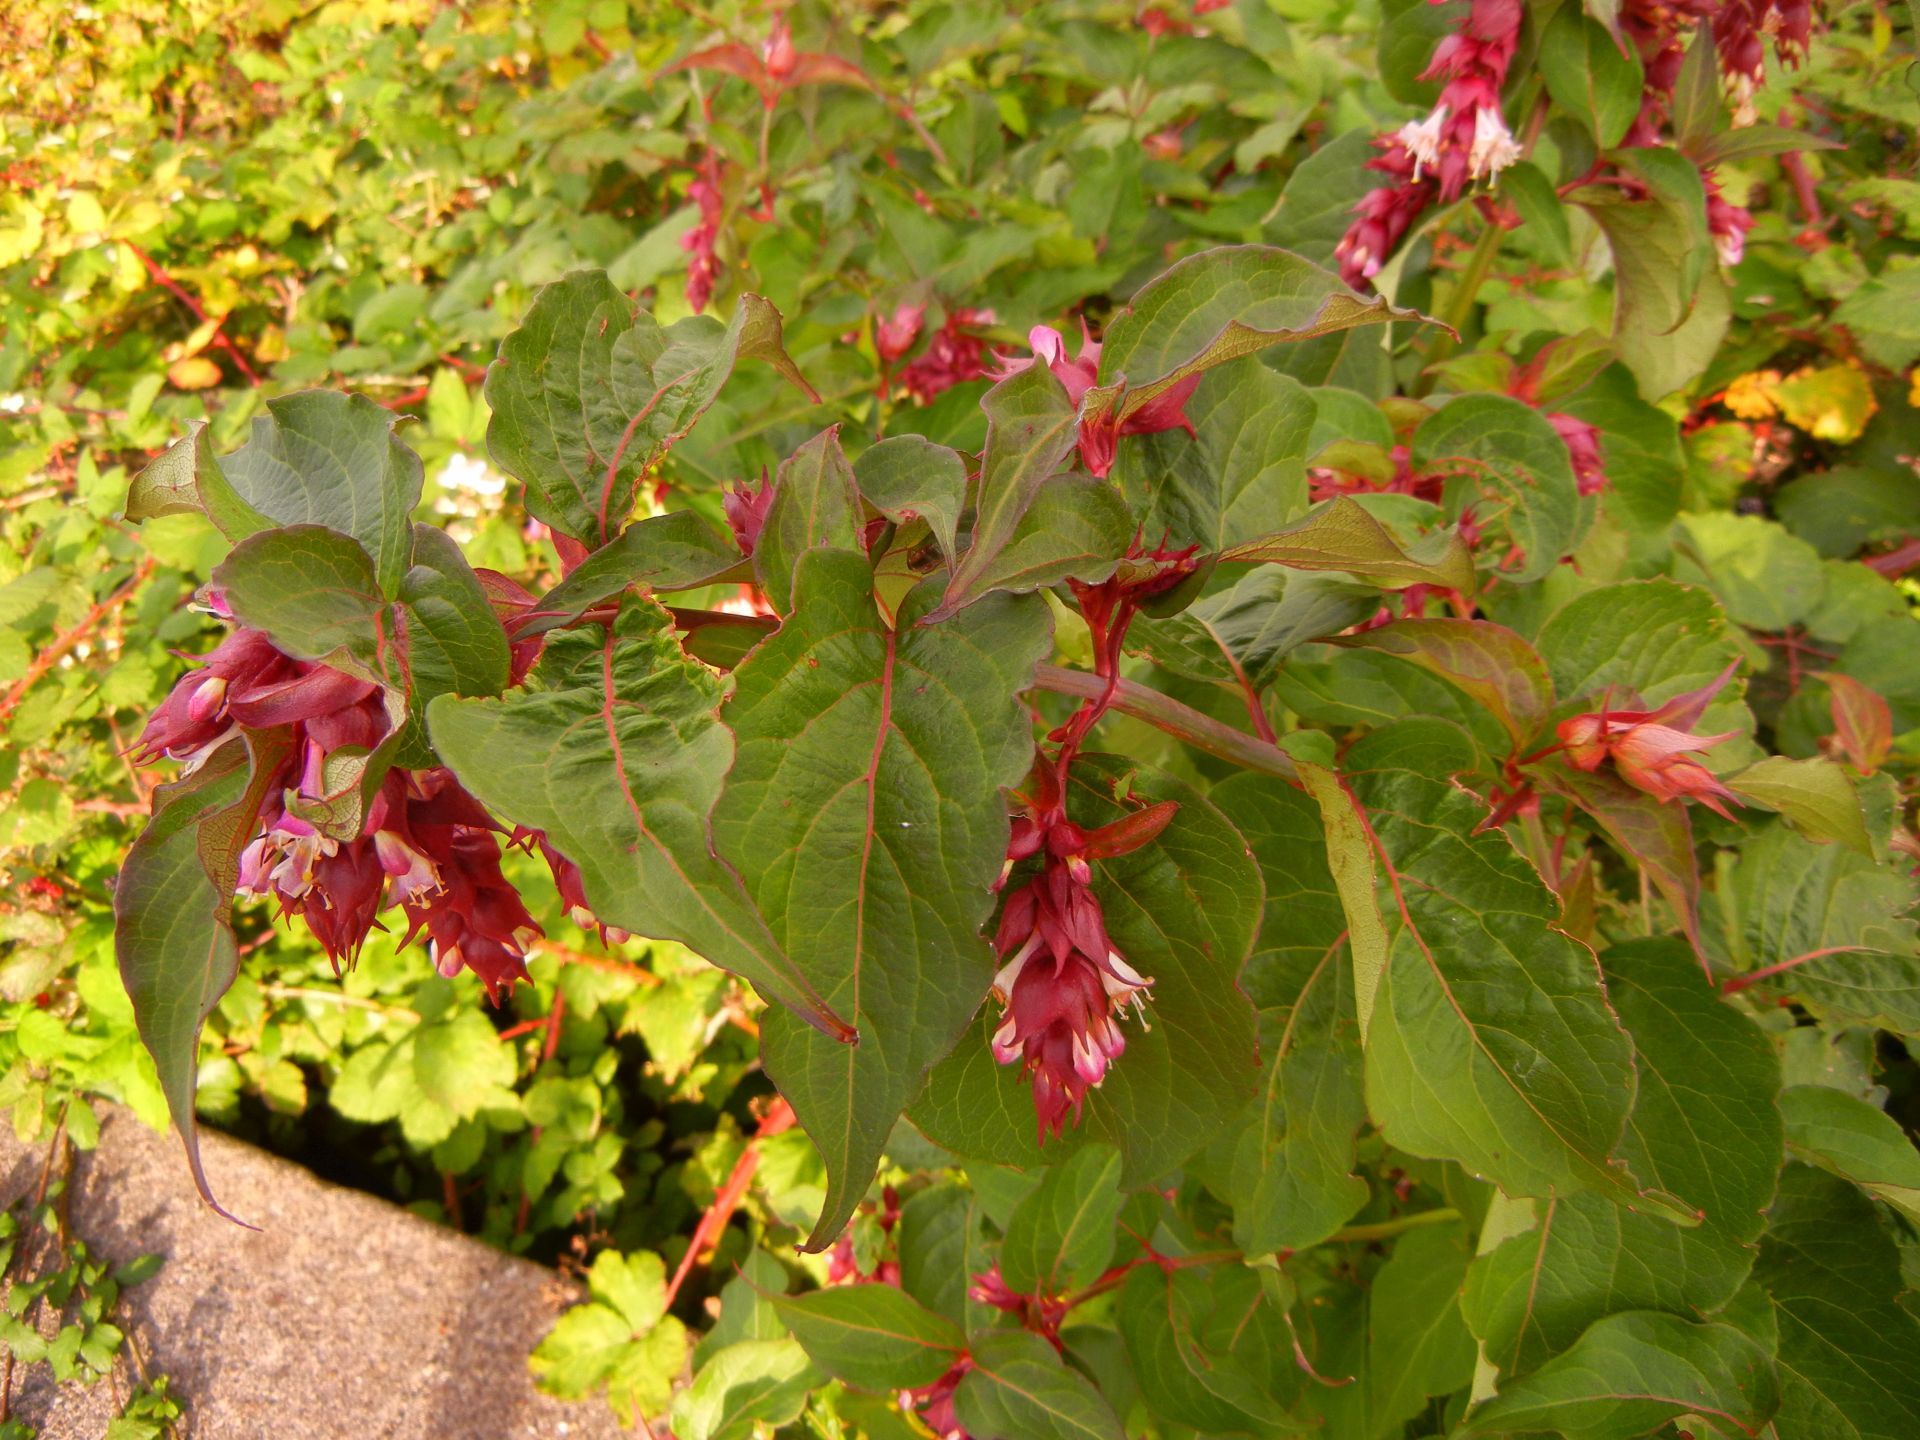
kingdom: Plantae
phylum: Tracheophyta
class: Magnoliopsida
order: Dipsacales
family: Caprifoliaceae
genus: Leycesteria
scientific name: Leycesteria formosa
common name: Himalayan honeysuckle
